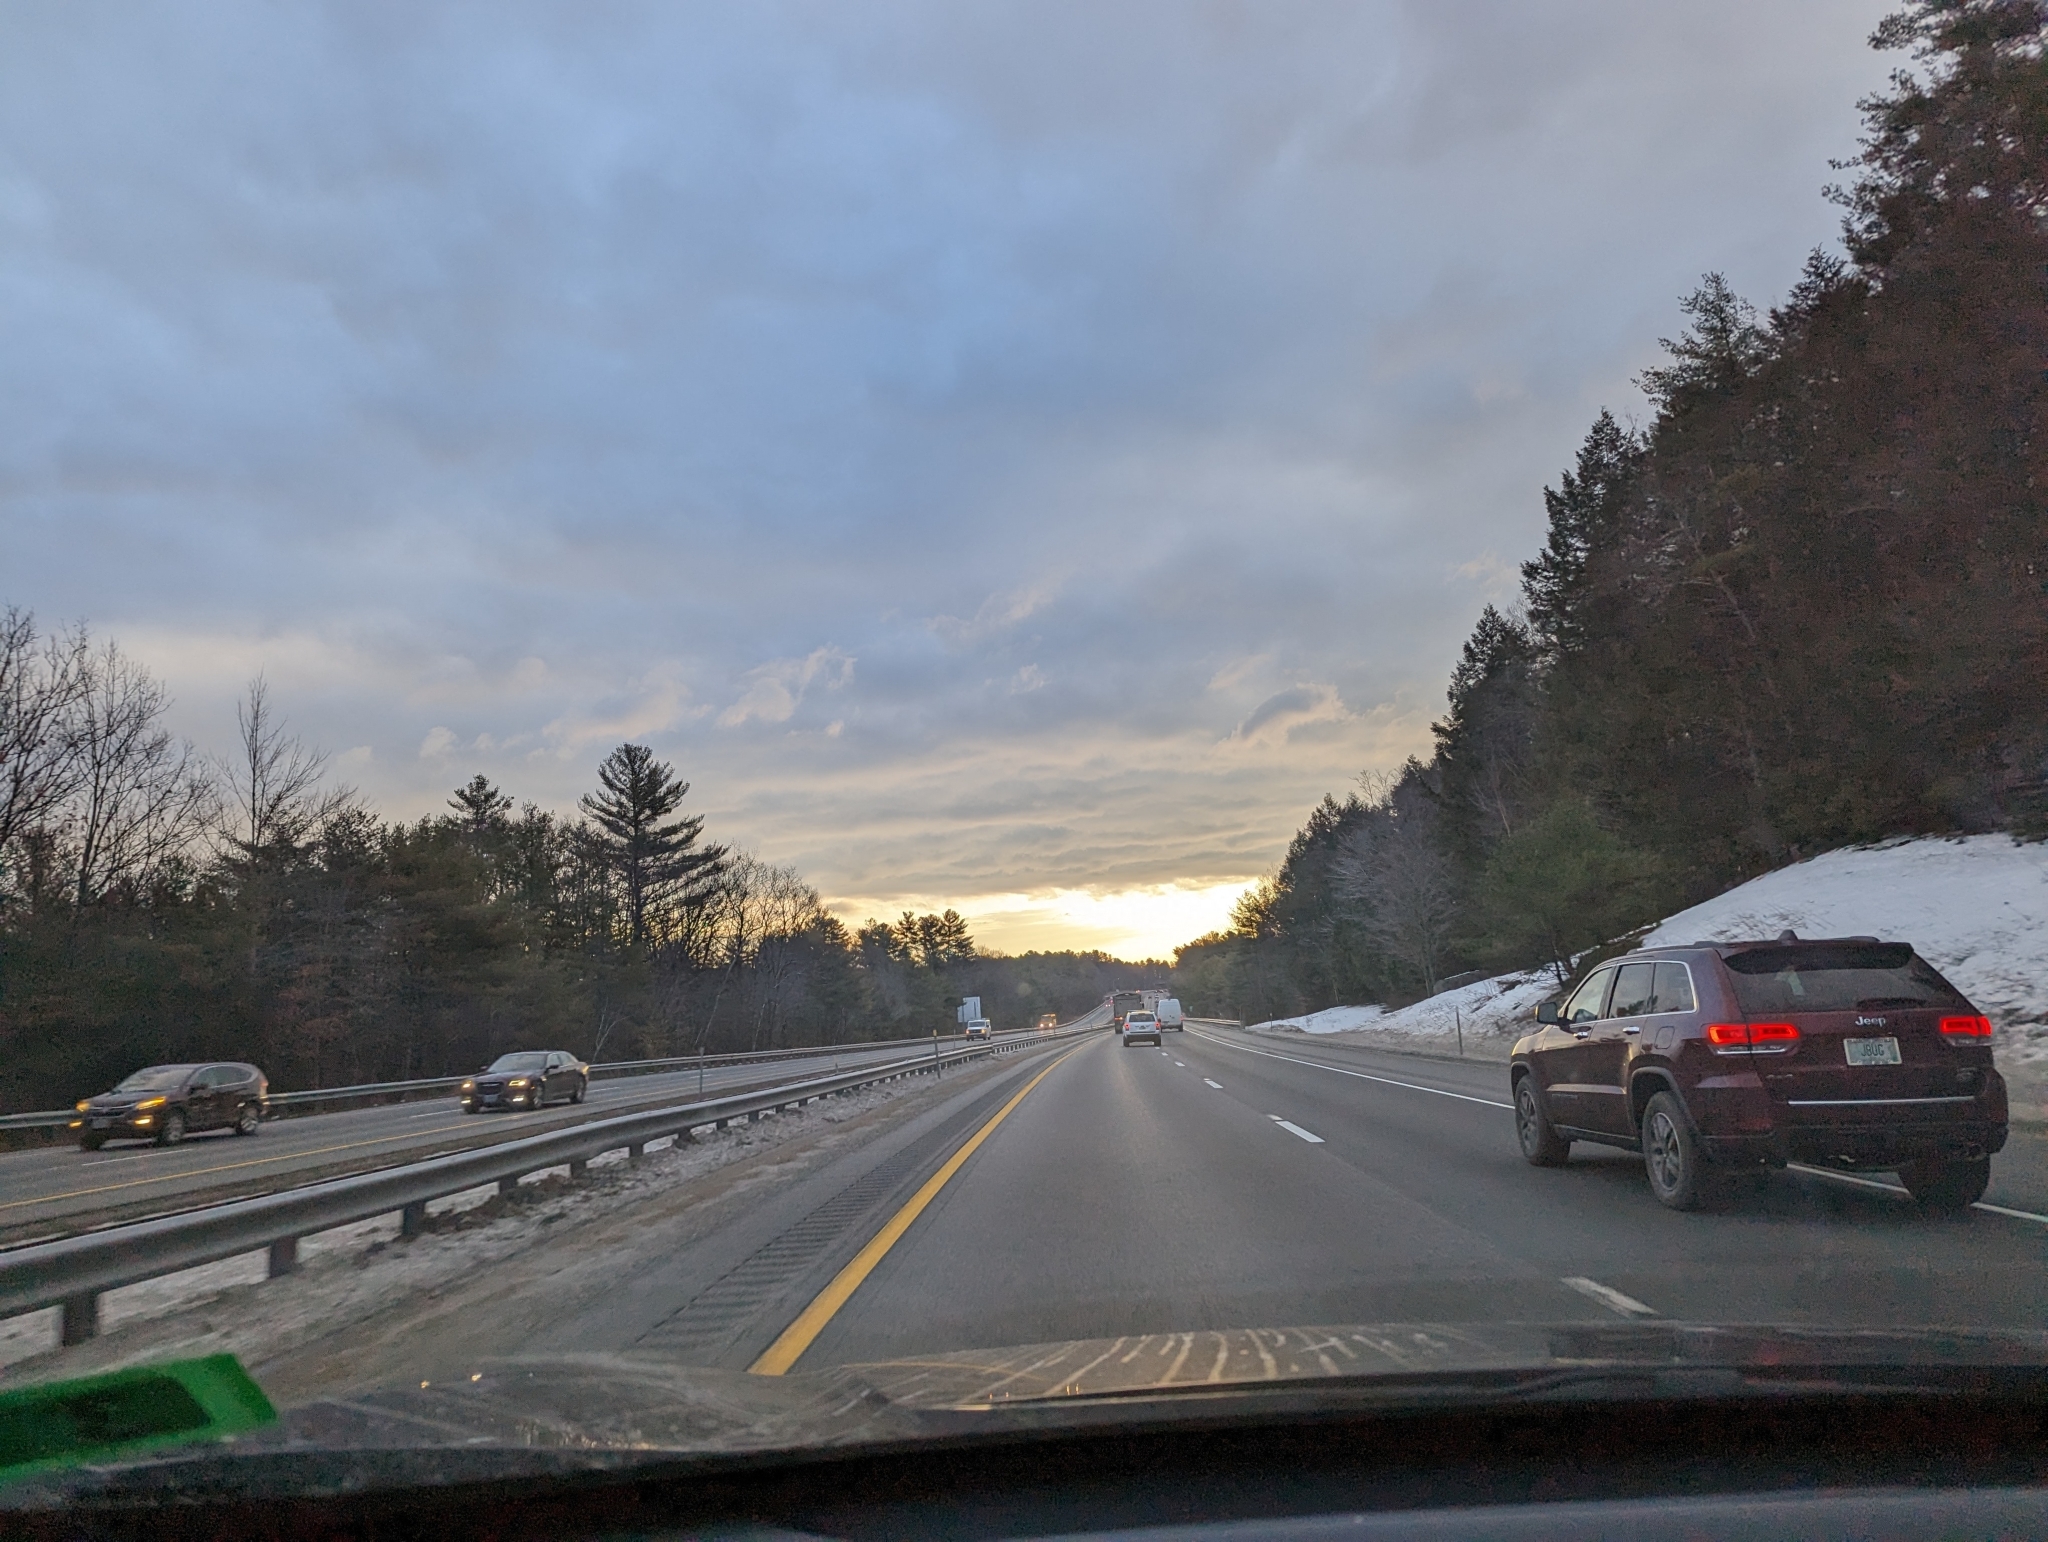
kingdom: Plantae
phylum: Tracheophyta
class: Pinopsida
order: Pinales
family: Pinaceae
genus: Pinus
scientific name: Pinus strobus
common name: Weymouth pine
